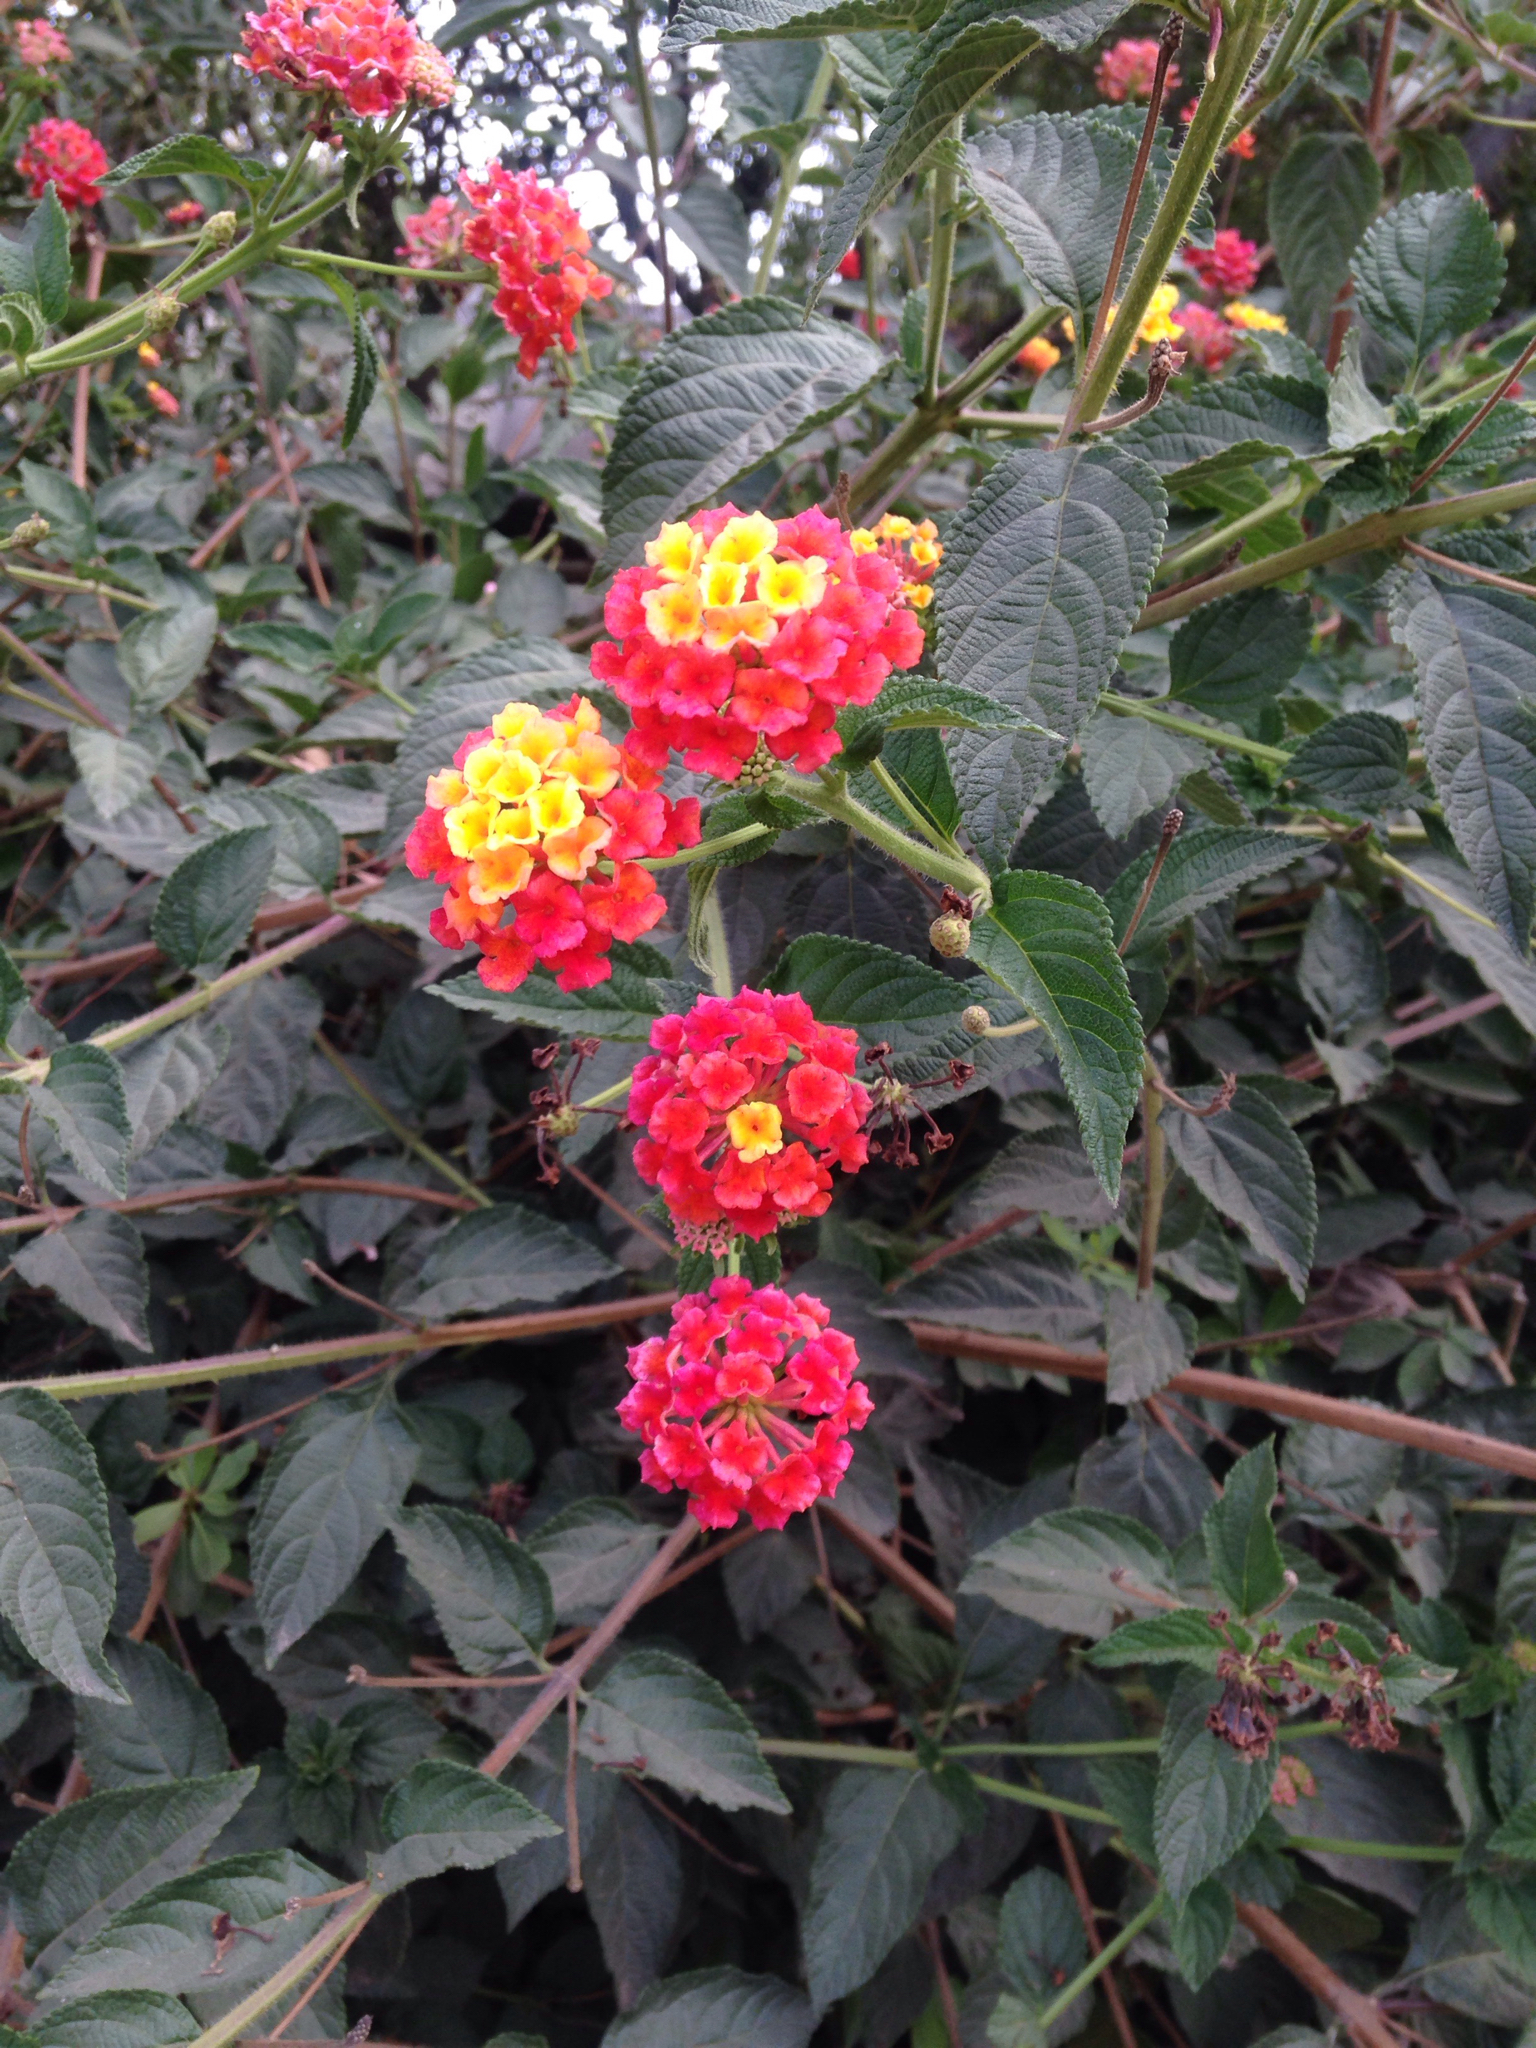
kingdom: Plantae
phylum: Tracheophyta
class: Magnoliopsida
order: Lamiales
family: Verbenaceae
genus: Lantana
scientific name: Lantana camara
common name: Lantana
